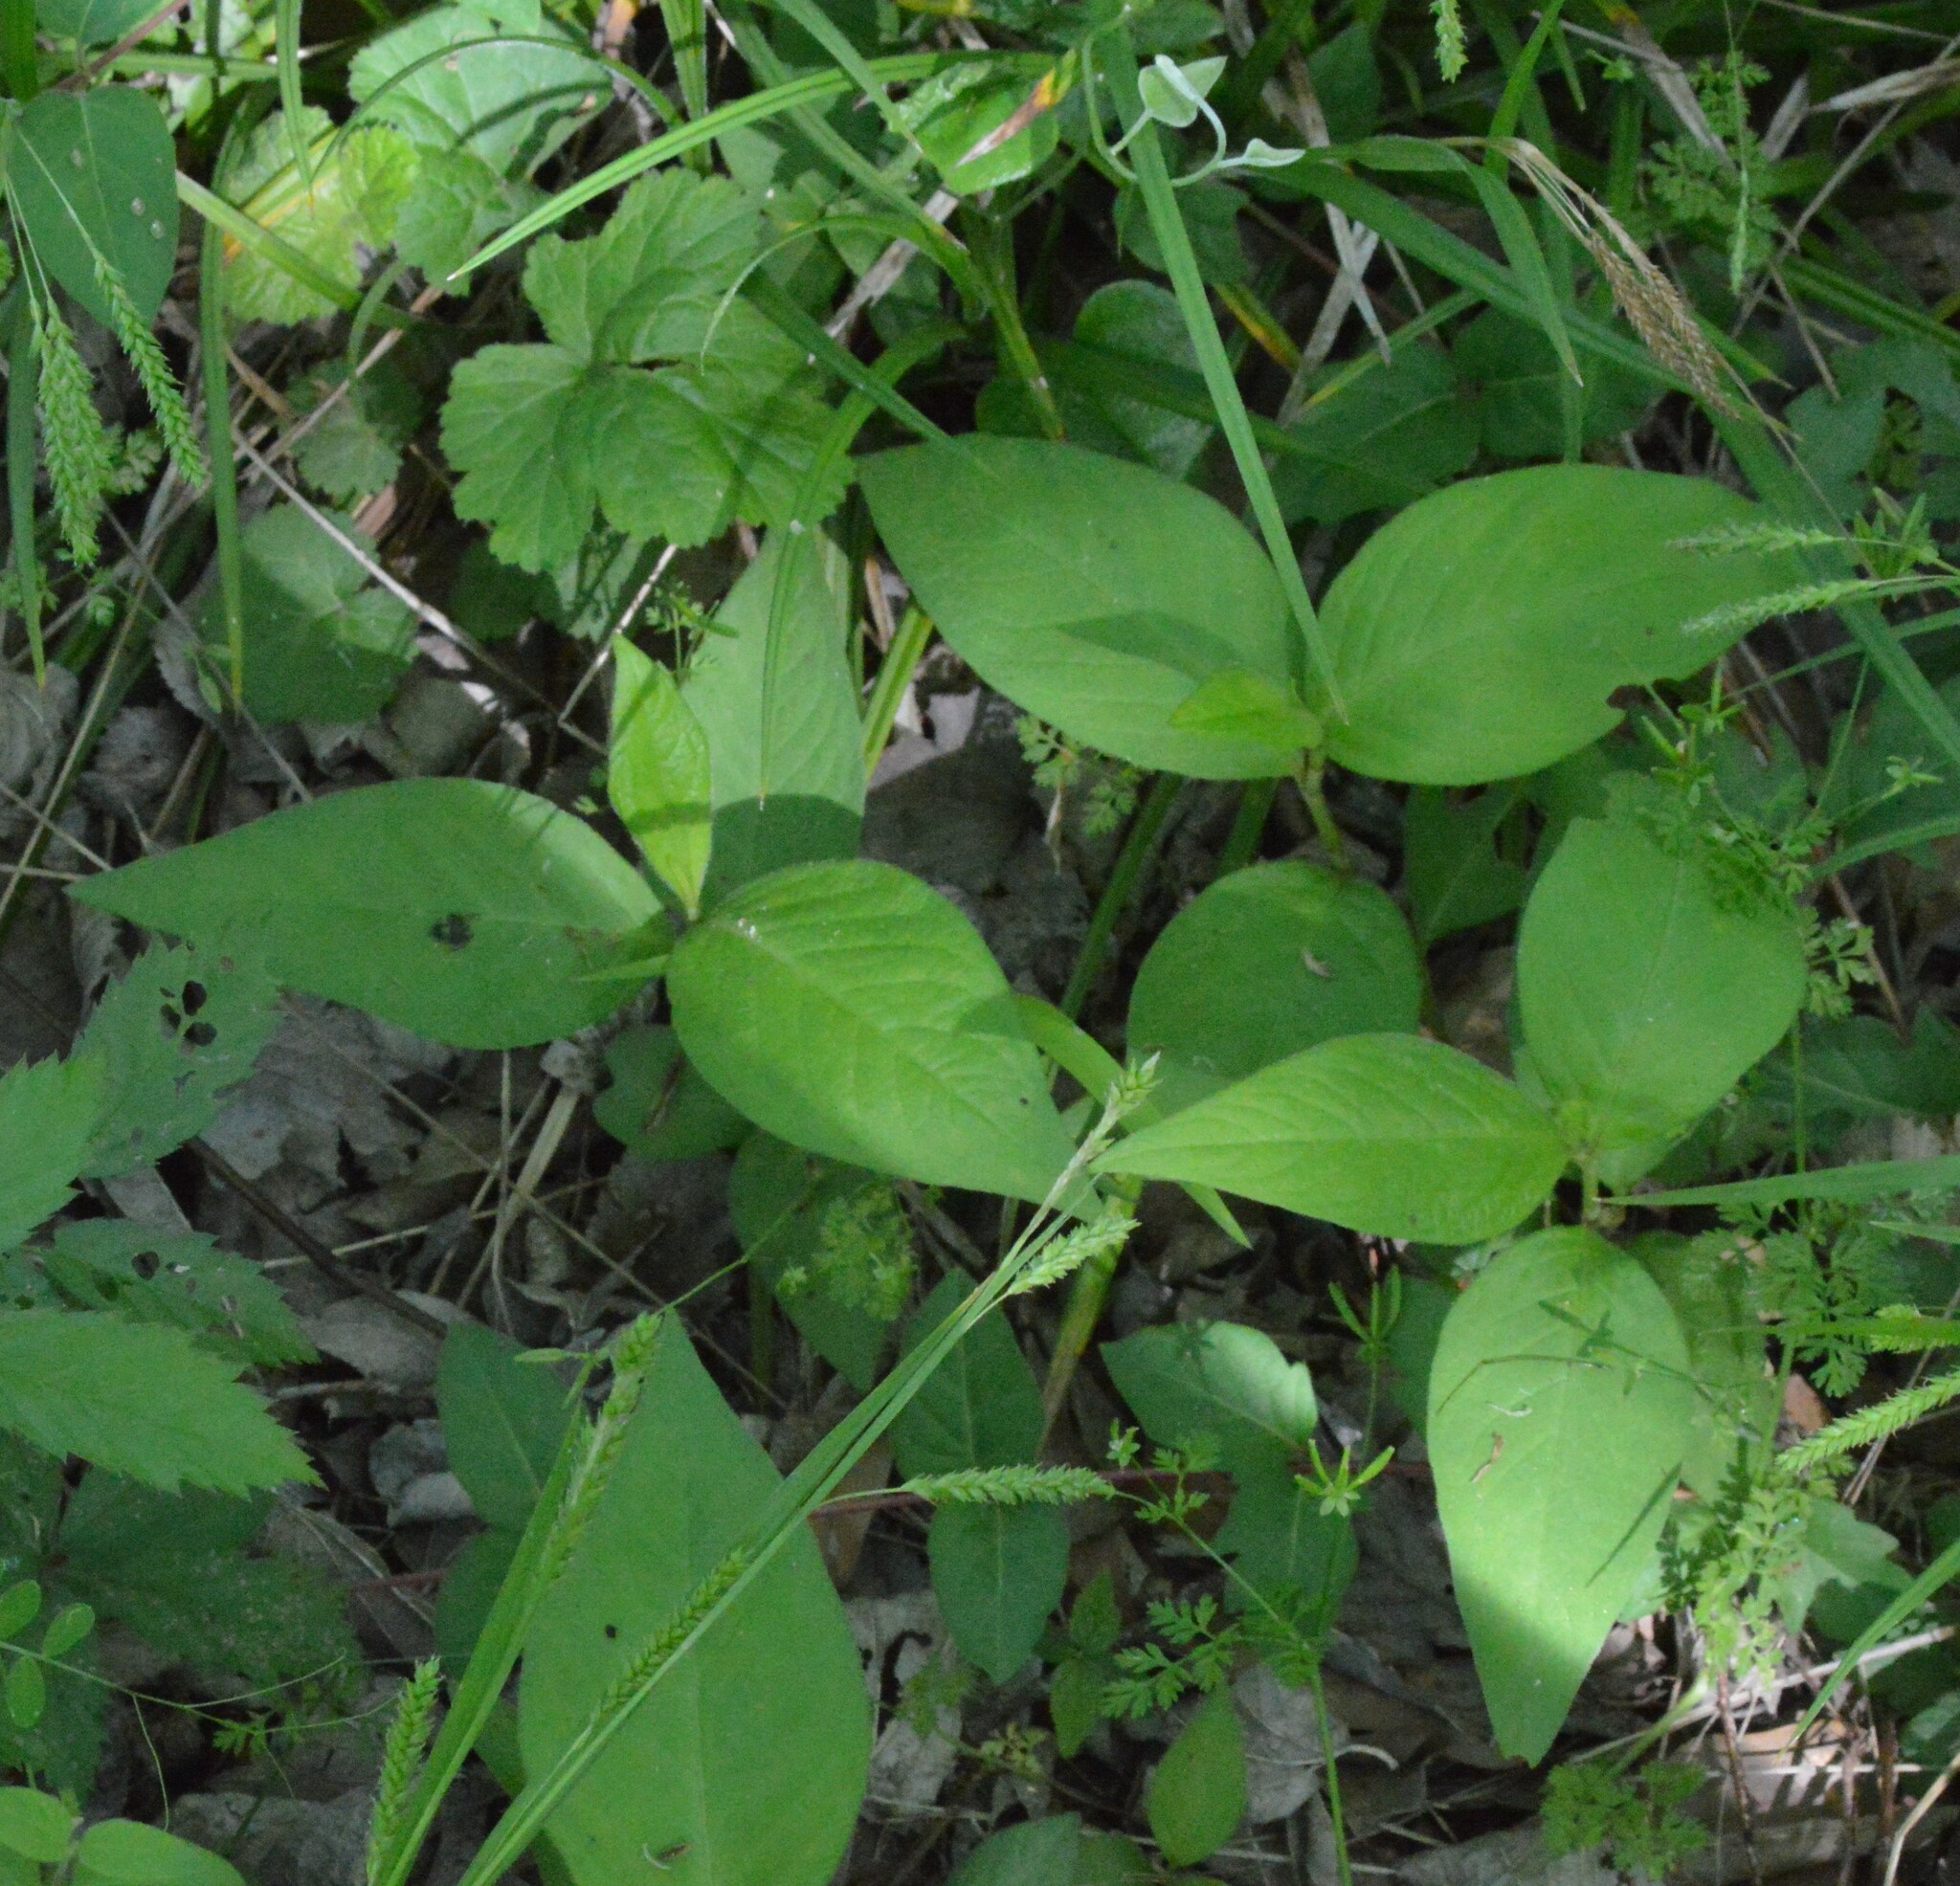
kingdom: Plantae
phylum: Tracheophyta
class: Magnoliopsida
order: Caryophyllales
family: Polygonaceae
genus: Persicaria
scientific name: Persicaria virginiana
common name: Jumpseed
